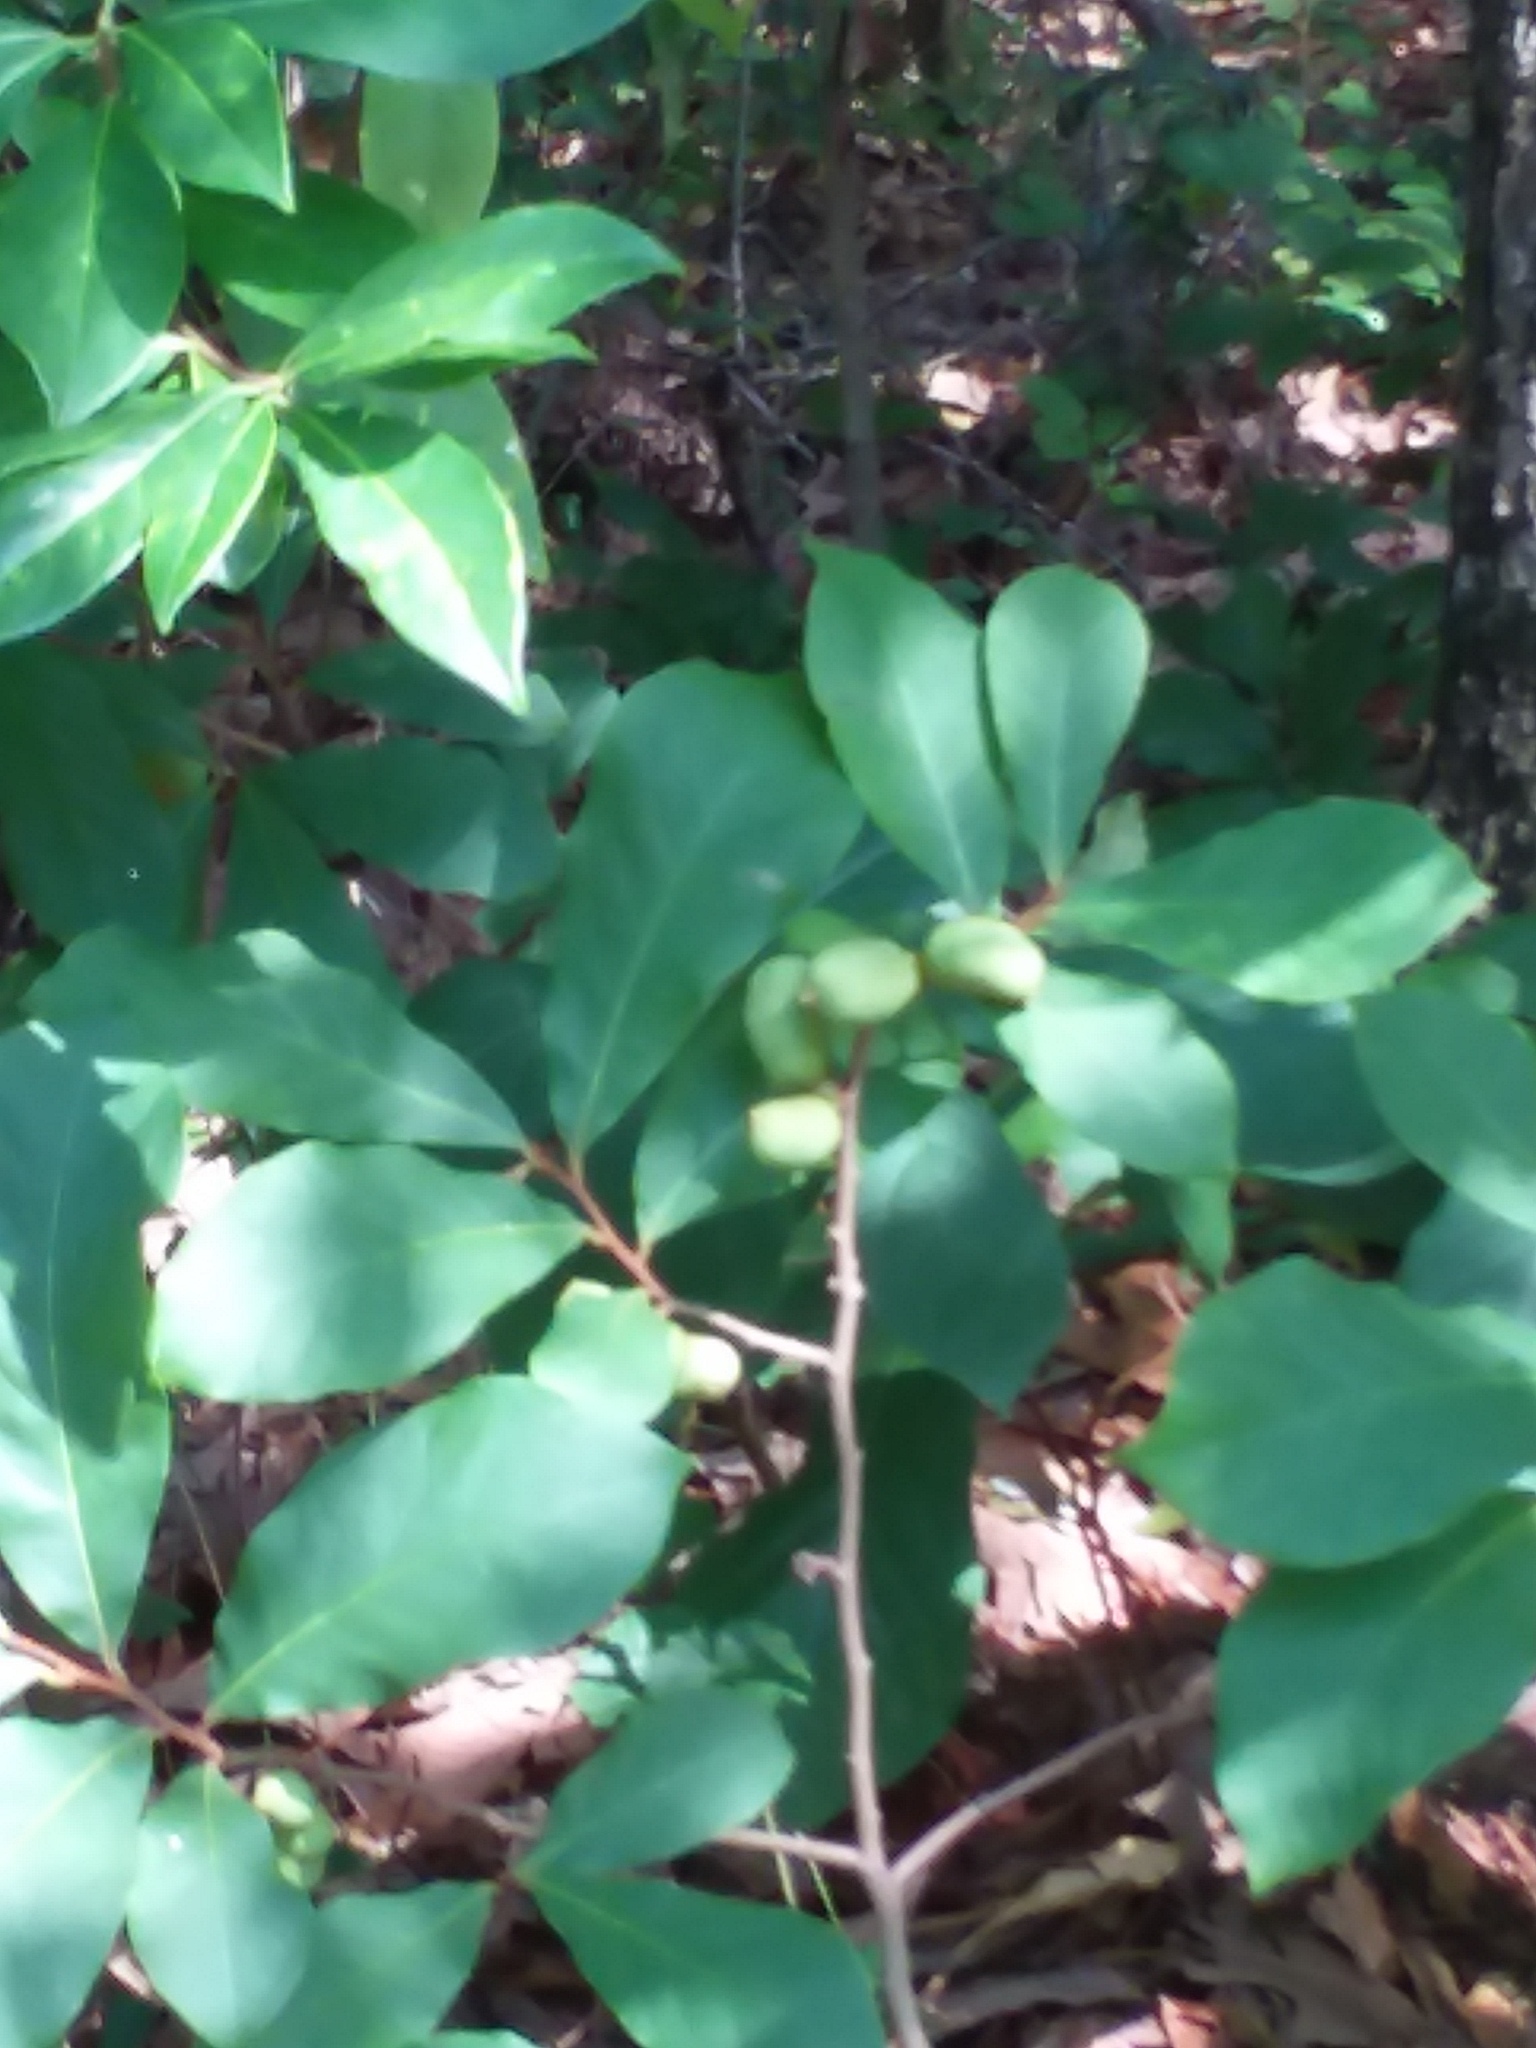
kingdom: Plantae
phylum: Tracheophyta
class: Magnoliopsida
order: Magnoliales
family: Annonaceae
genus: Asimina
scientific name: Asimina parviflora
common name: Dwarf pawpaw
